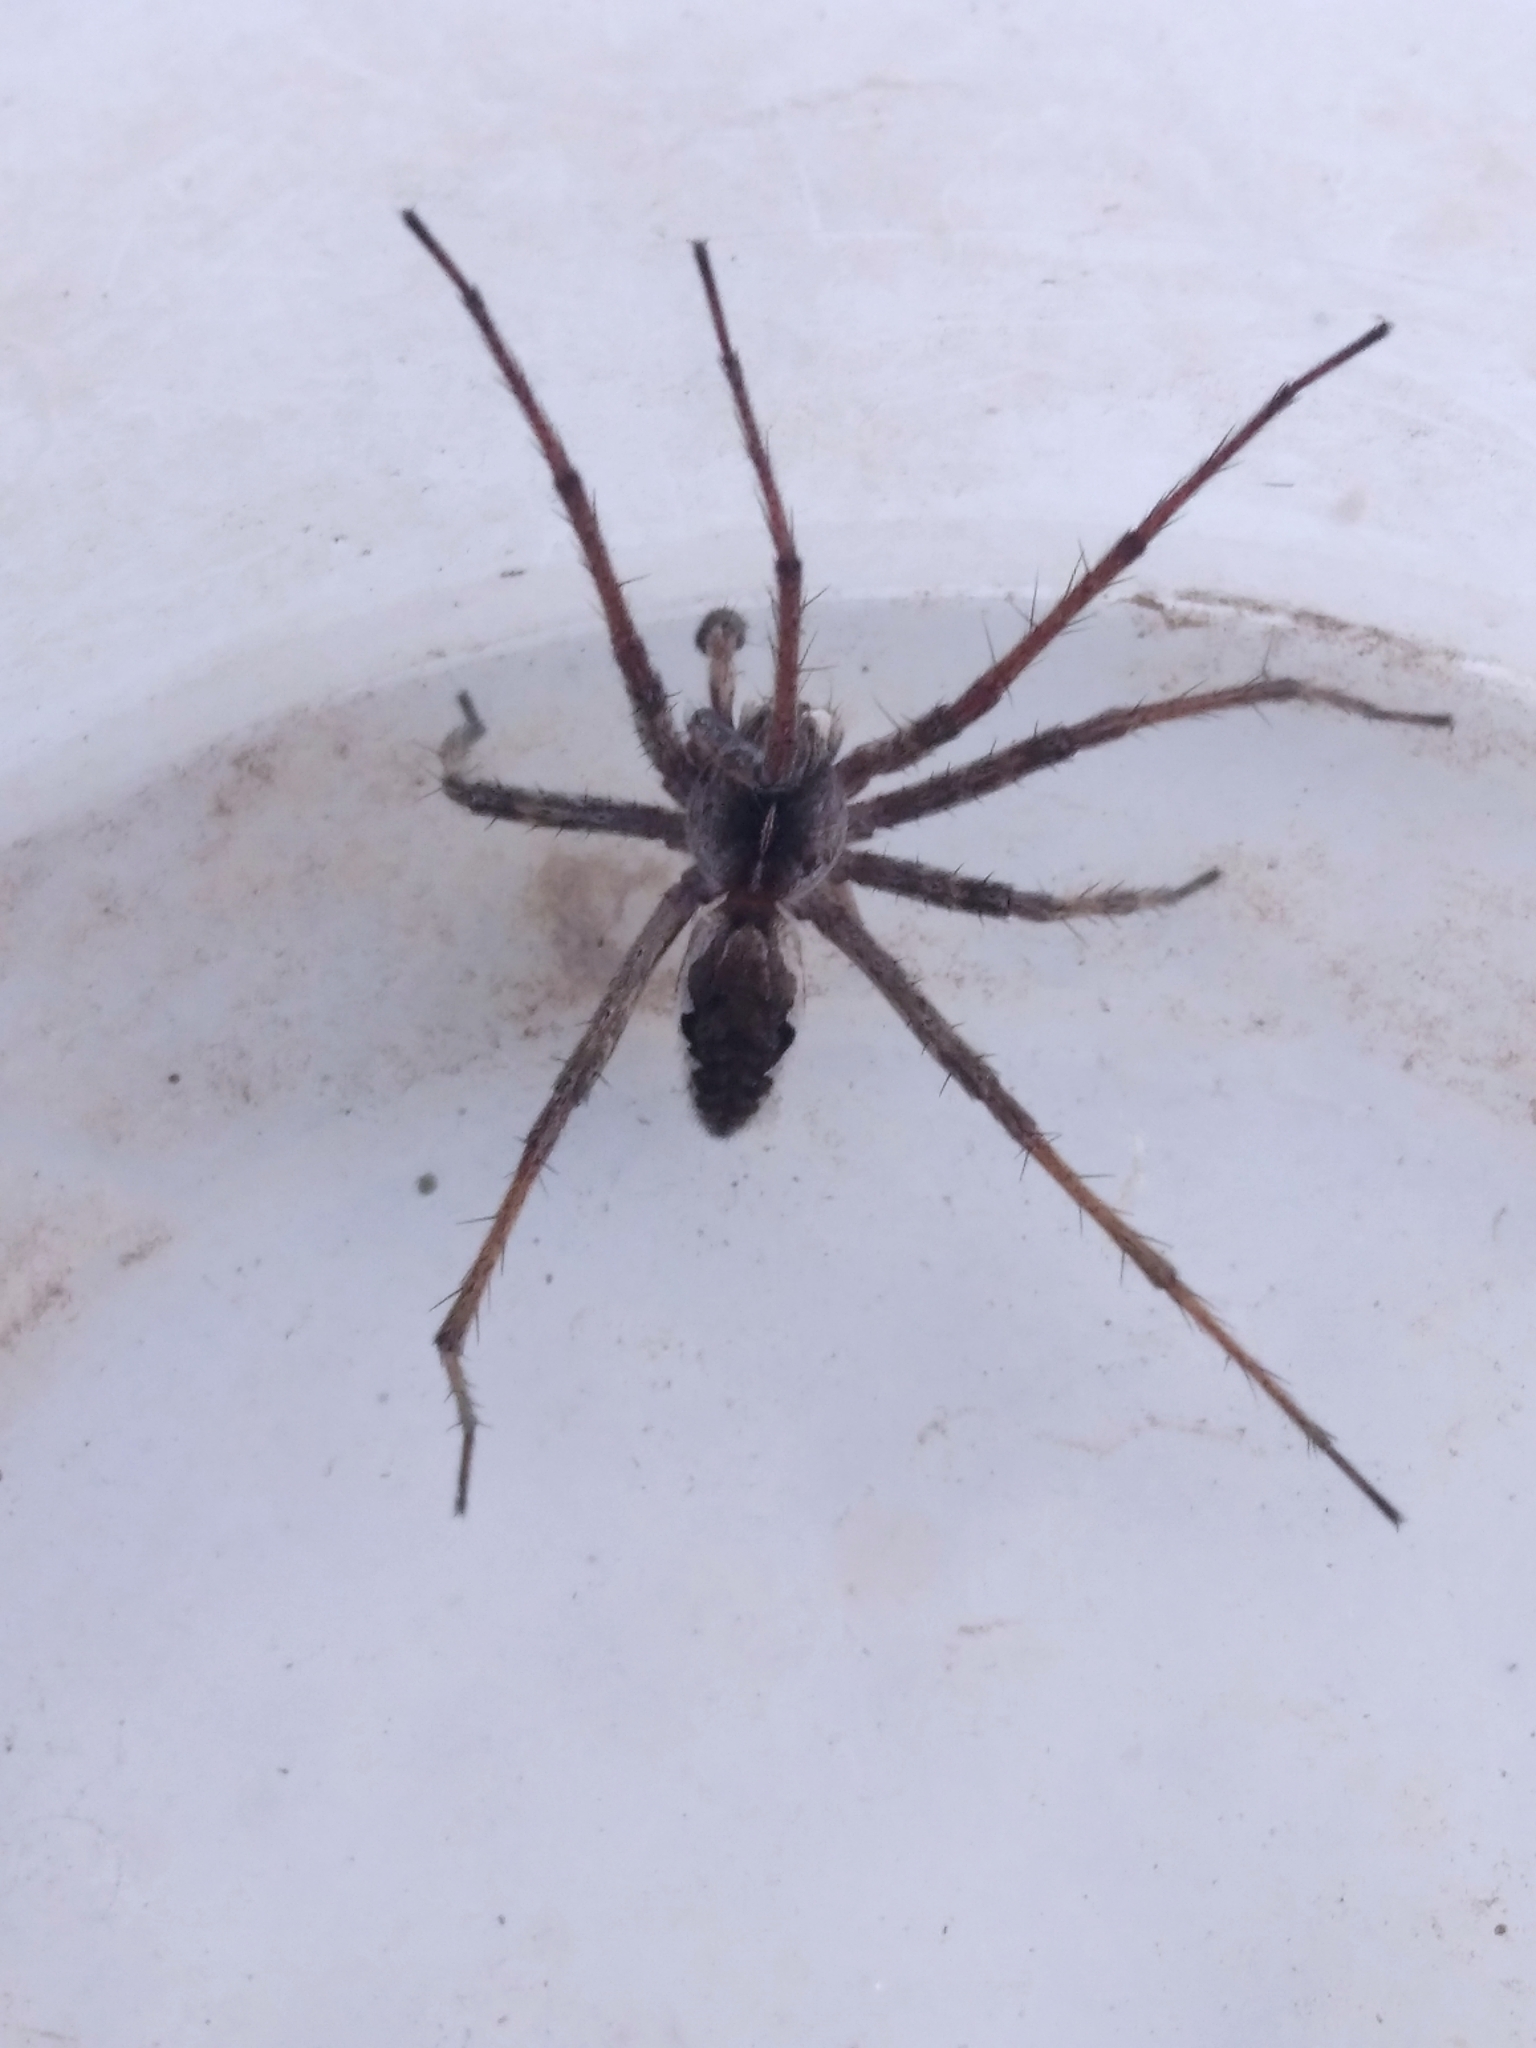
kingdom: Animalia
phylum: Arthropoda
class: Arachnida
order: Araneae
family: Pisauridae
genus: Pisaura
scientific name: Pisaura mirabilis
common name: Tent spider
